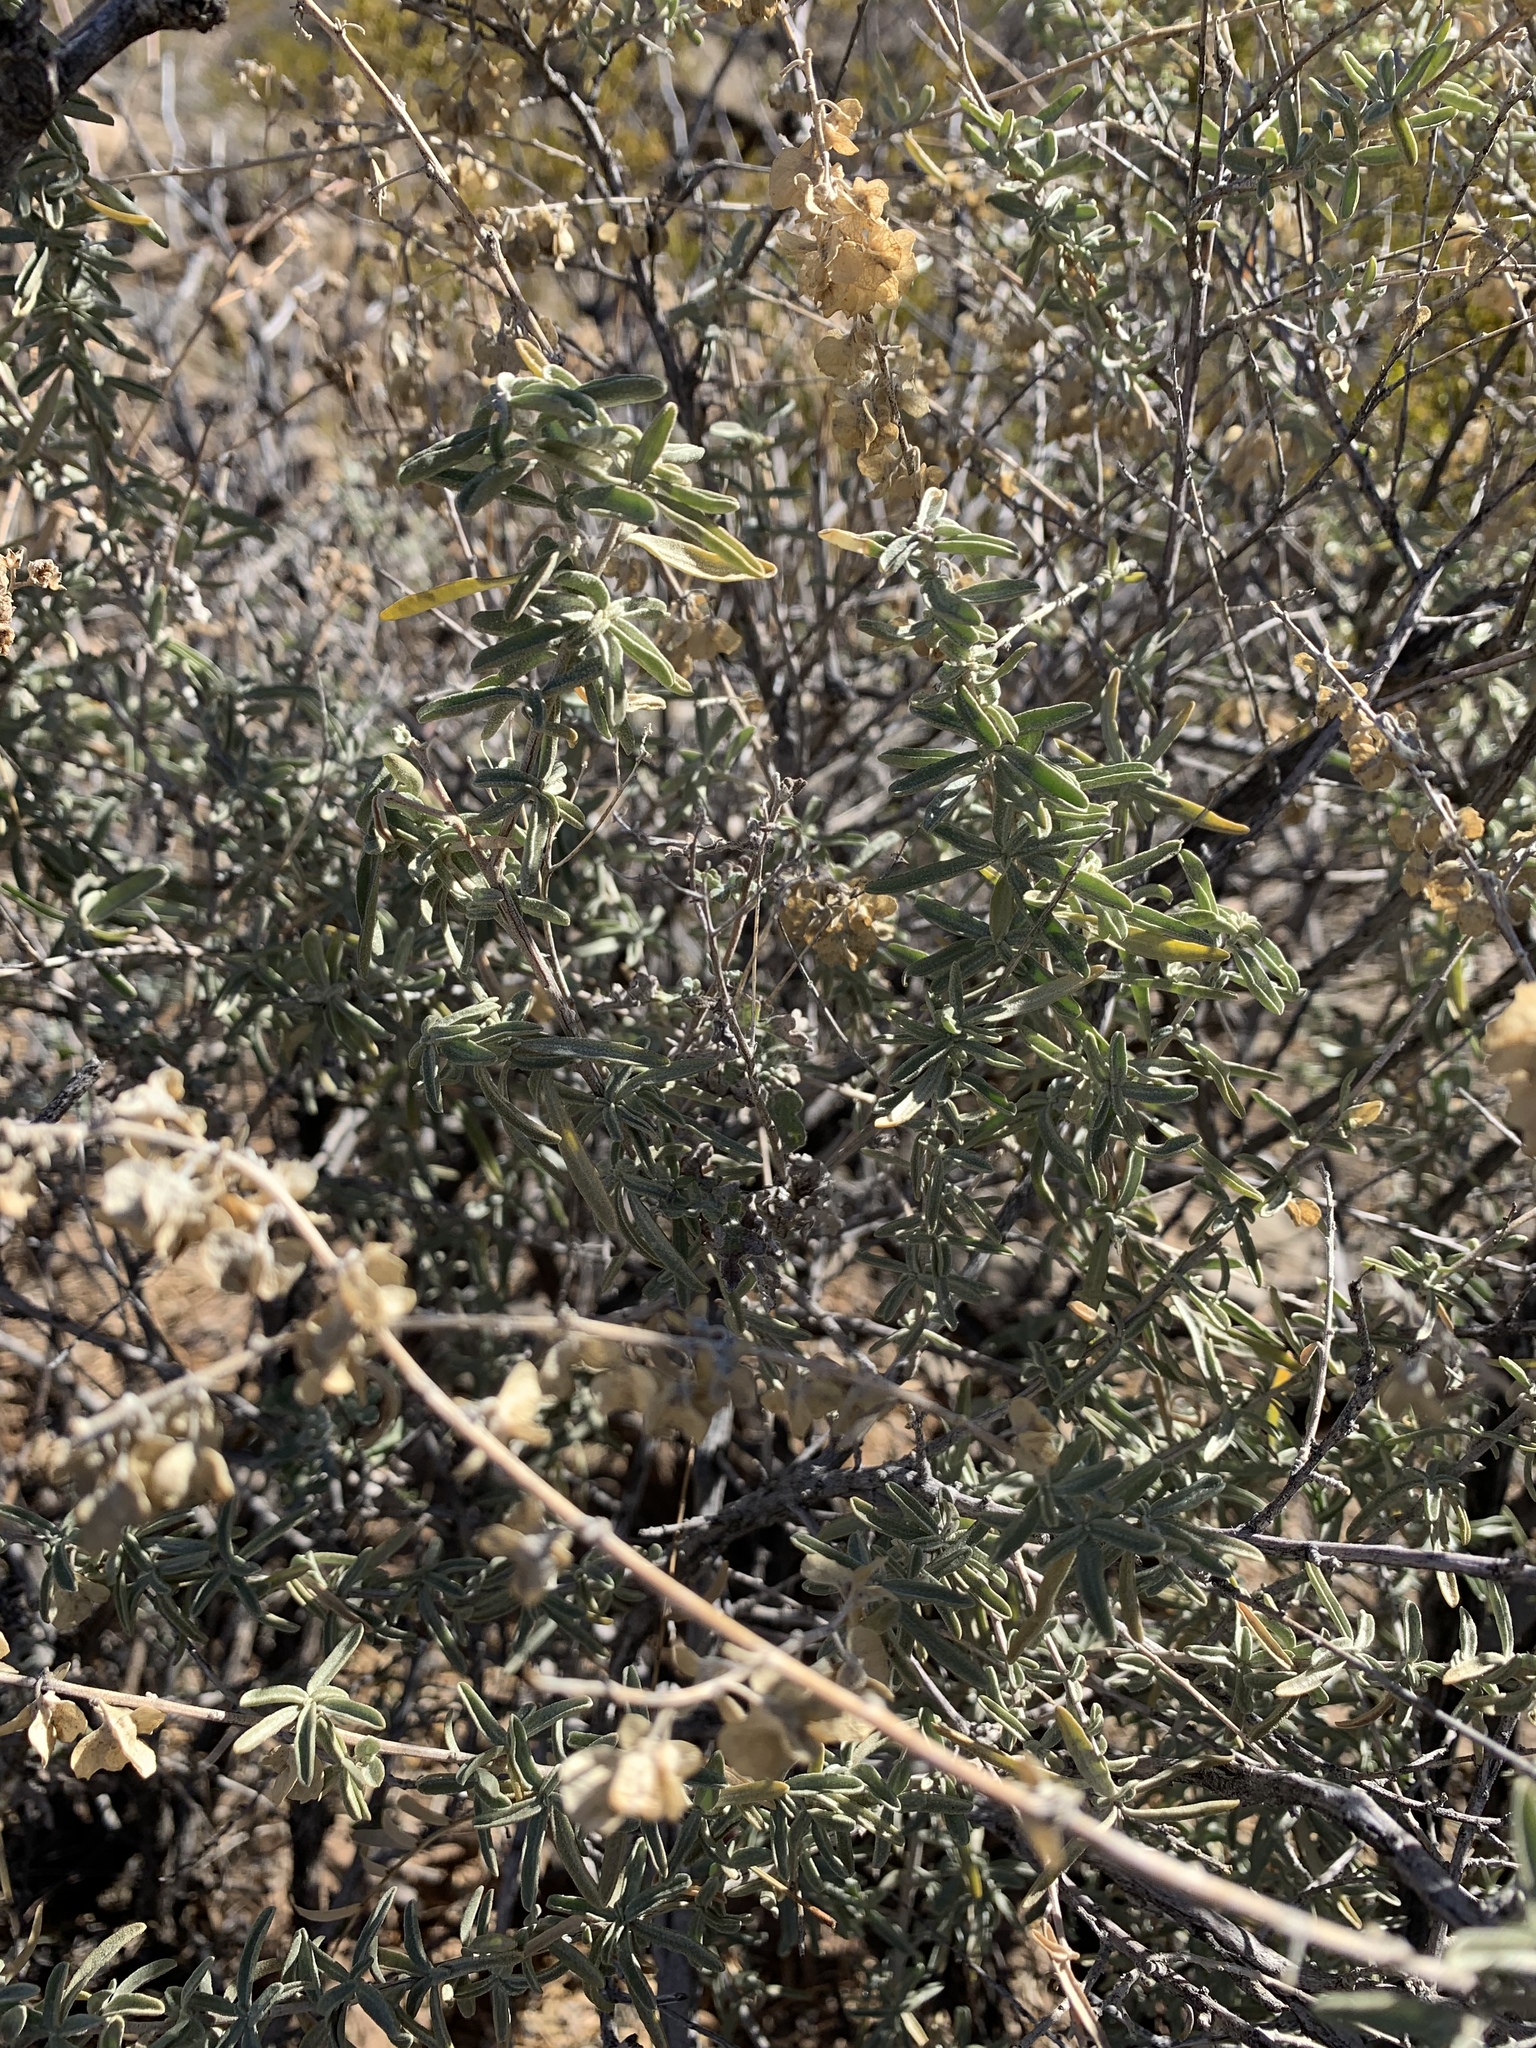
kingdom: Plantae
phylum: Tracheophyta
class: Magnoliopsida
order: Caryophyllales
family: Amaranthaceae
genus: Atriplex
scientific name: Atriplex canescens
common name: Four-wing saltbush
